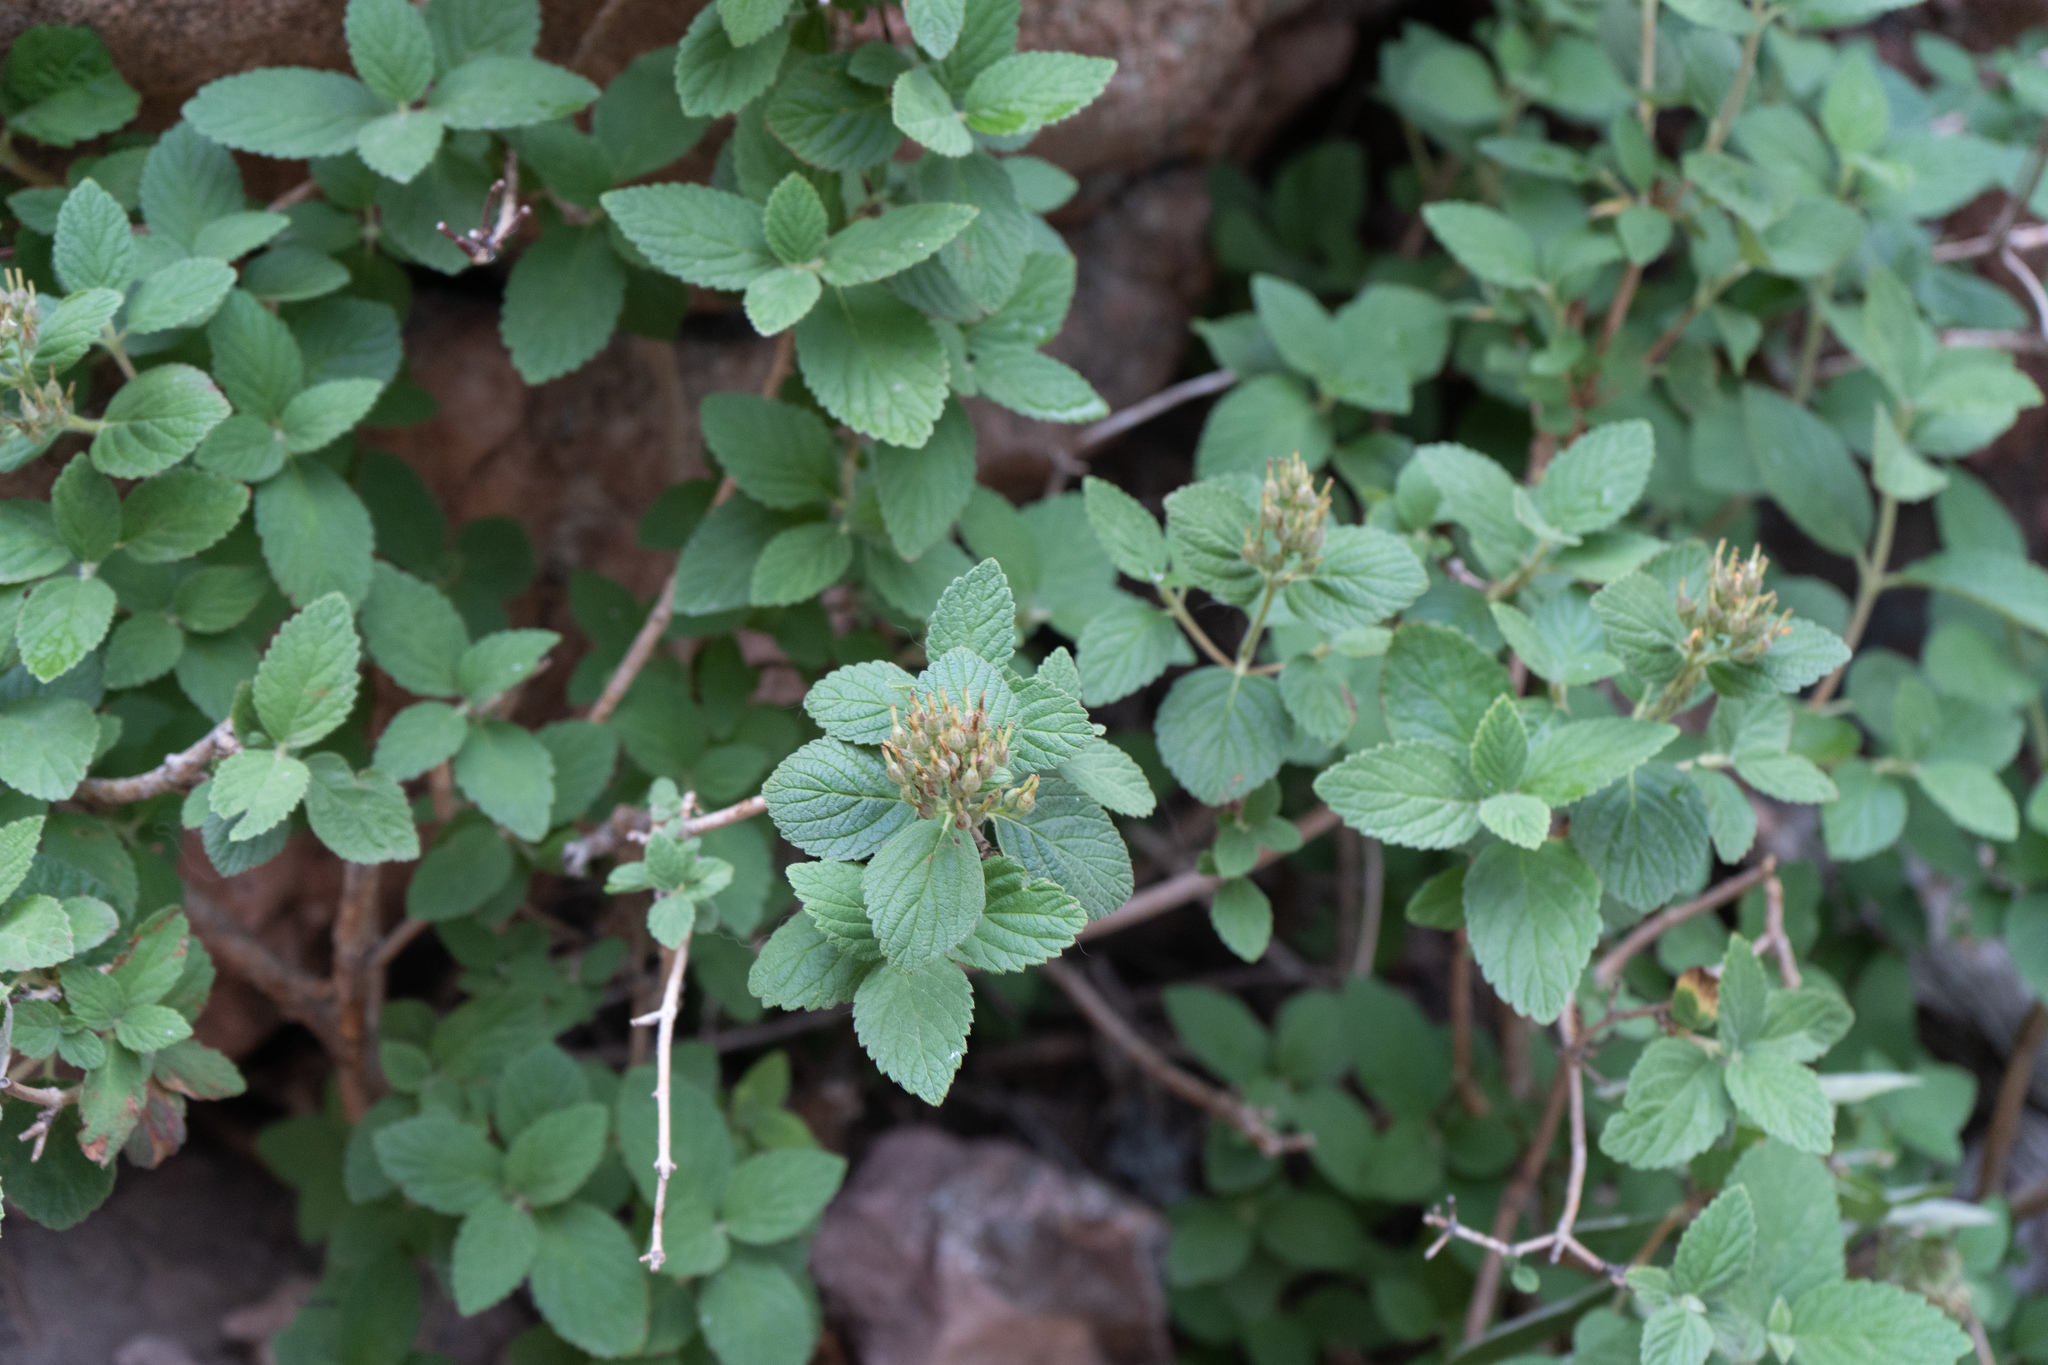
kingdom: Plantae
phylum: Tracheophyta
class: Magnoliopsida
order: Cornales
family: Hydrangeaceae
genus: Jamesia
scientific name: Jamesia americana
